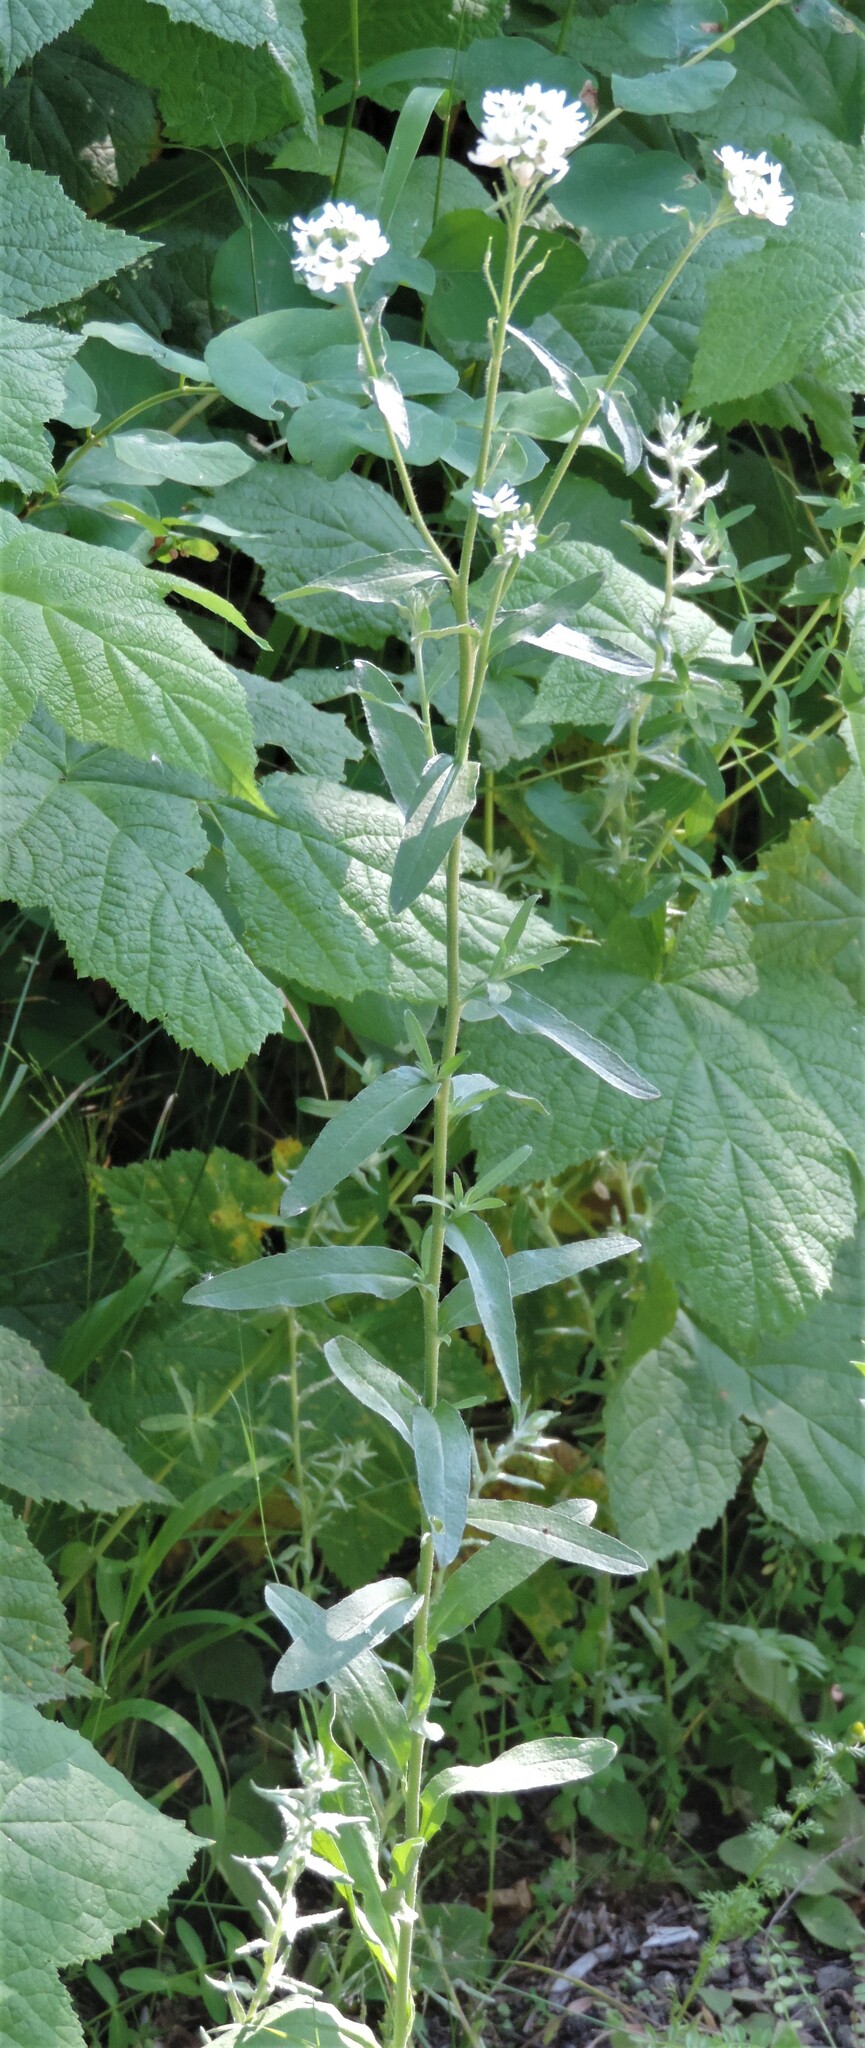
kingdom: Plantae
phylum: Tracheophyta
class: Magnoliopsida
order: Brassicales
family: Brassicaceae
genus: Berteroa
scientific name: Berteroa incana
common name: Hoary alison
